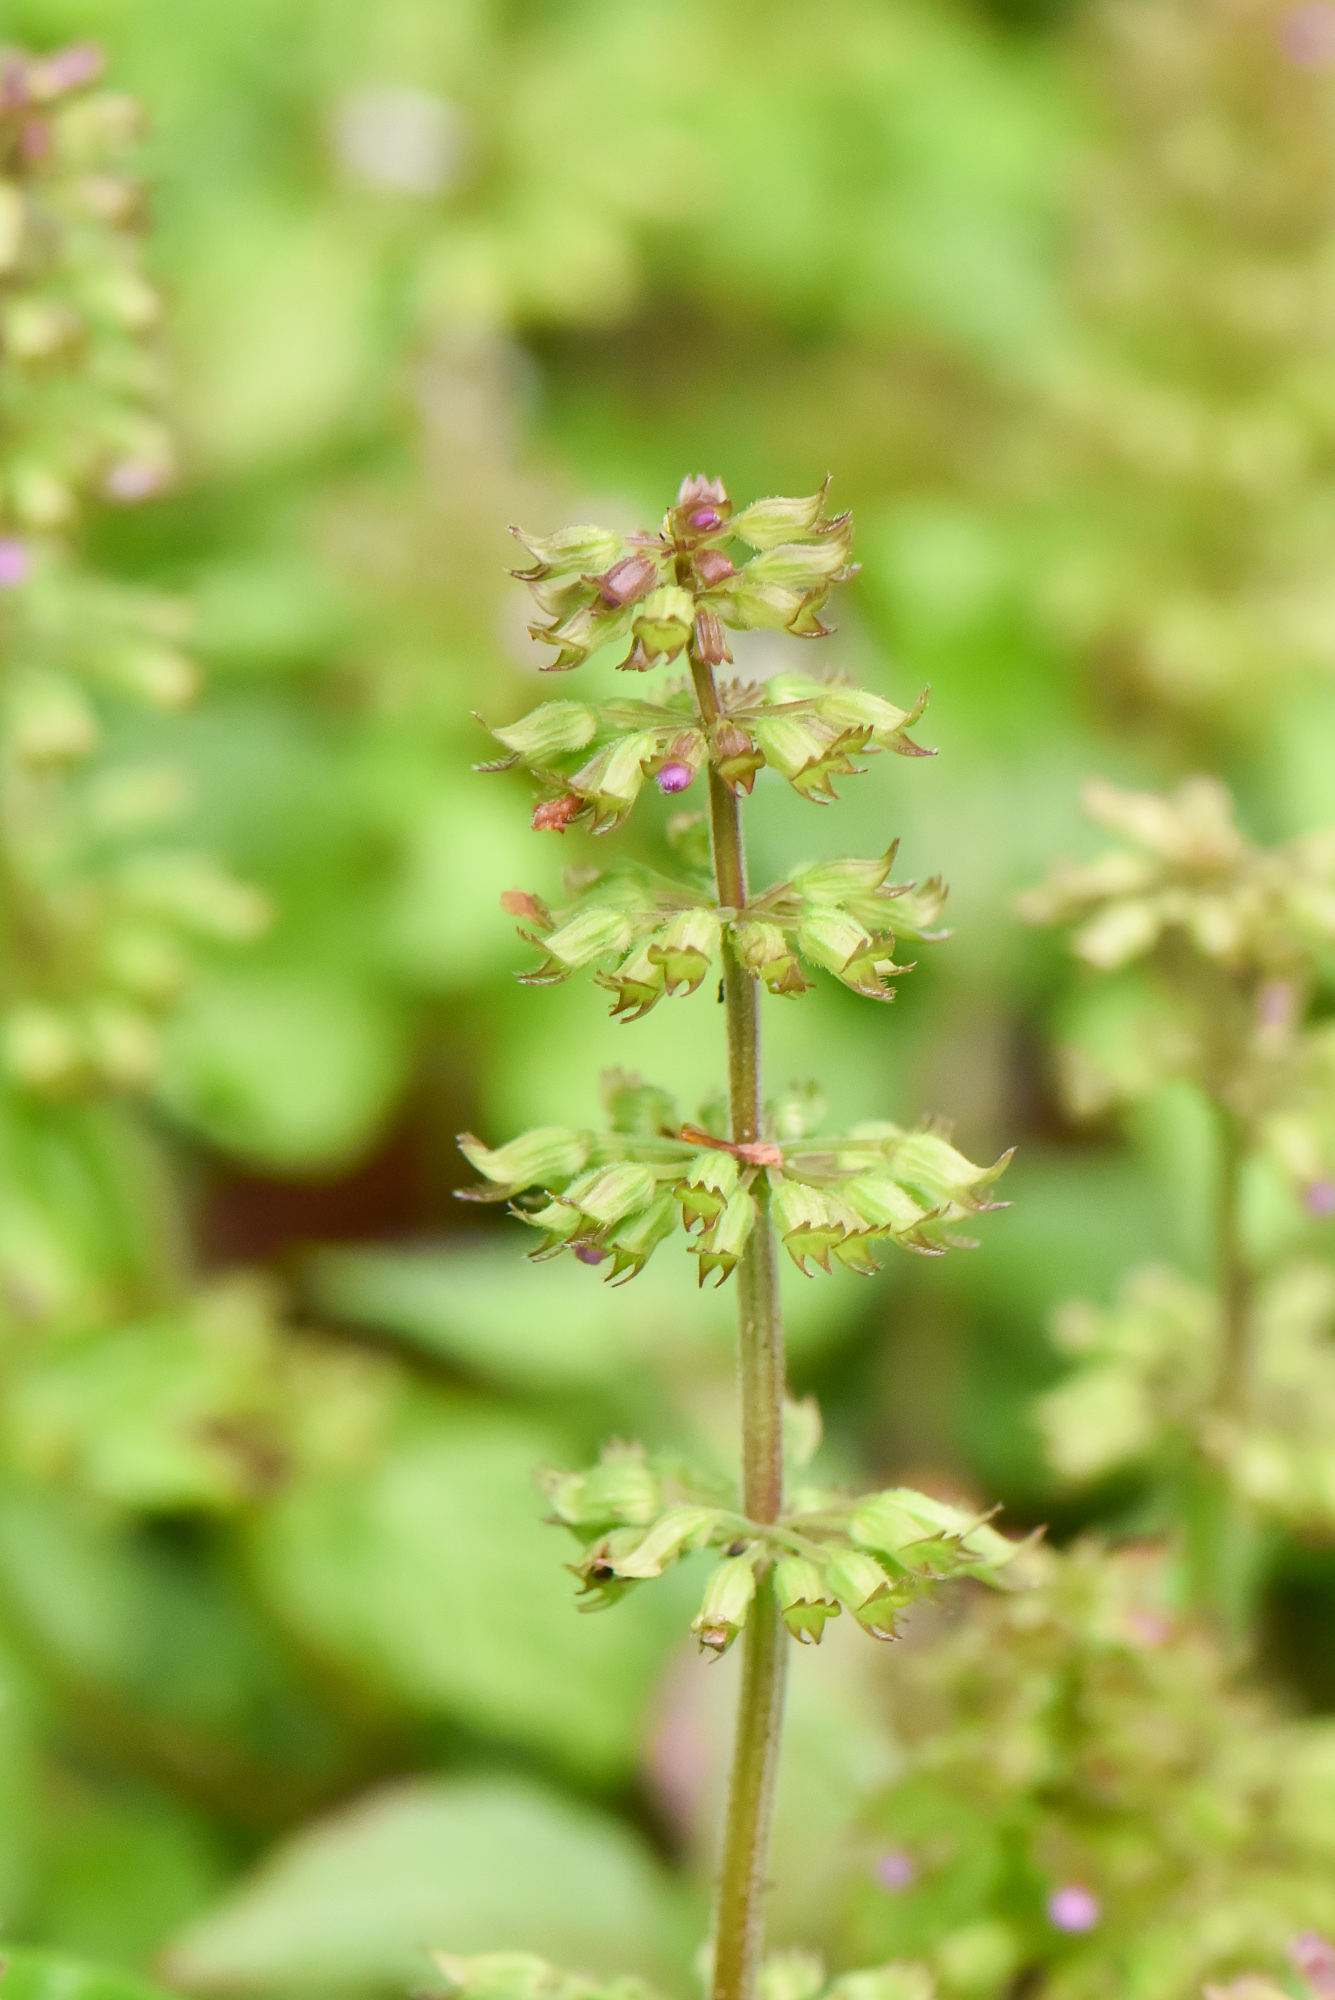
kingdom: Plantae
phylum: Tracheophyta
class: Magnoliopsida
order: Lamiales
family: Lamiaceae
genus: Clinopodium
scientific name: Clinopodium gracile
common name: Slender wild basil
